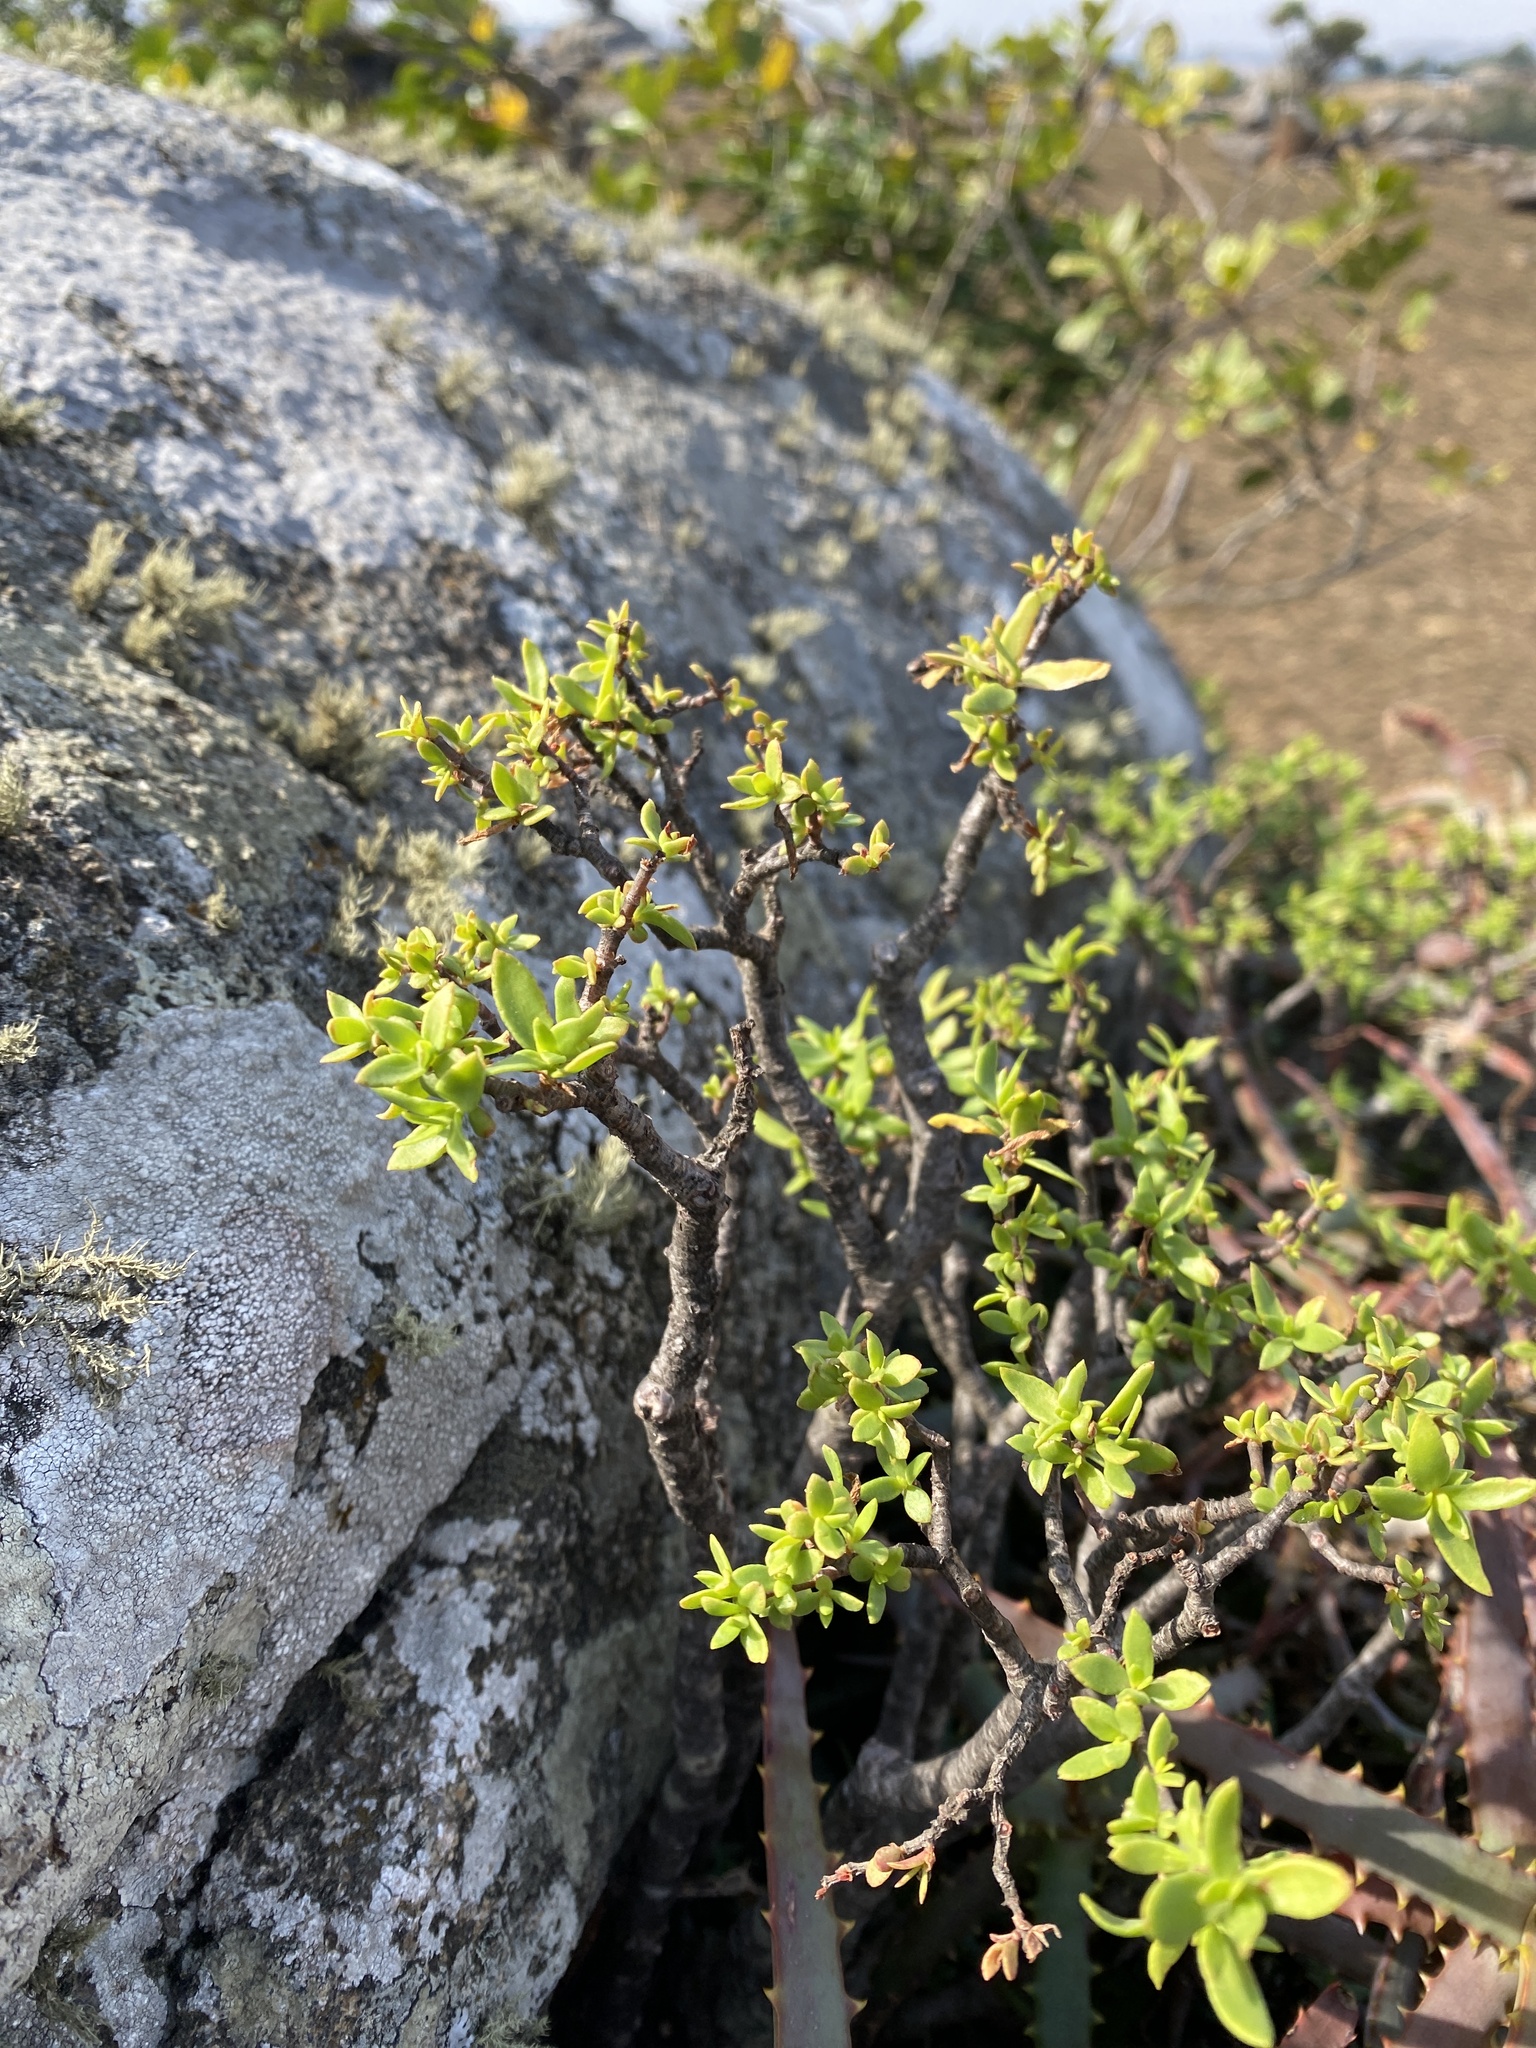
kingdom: Plantae
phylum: Tracheophyta
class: Magnoliopsida
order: Saxifragales
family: Crassulaceae
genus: Crassula
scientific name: Crassula sarcocaulis
